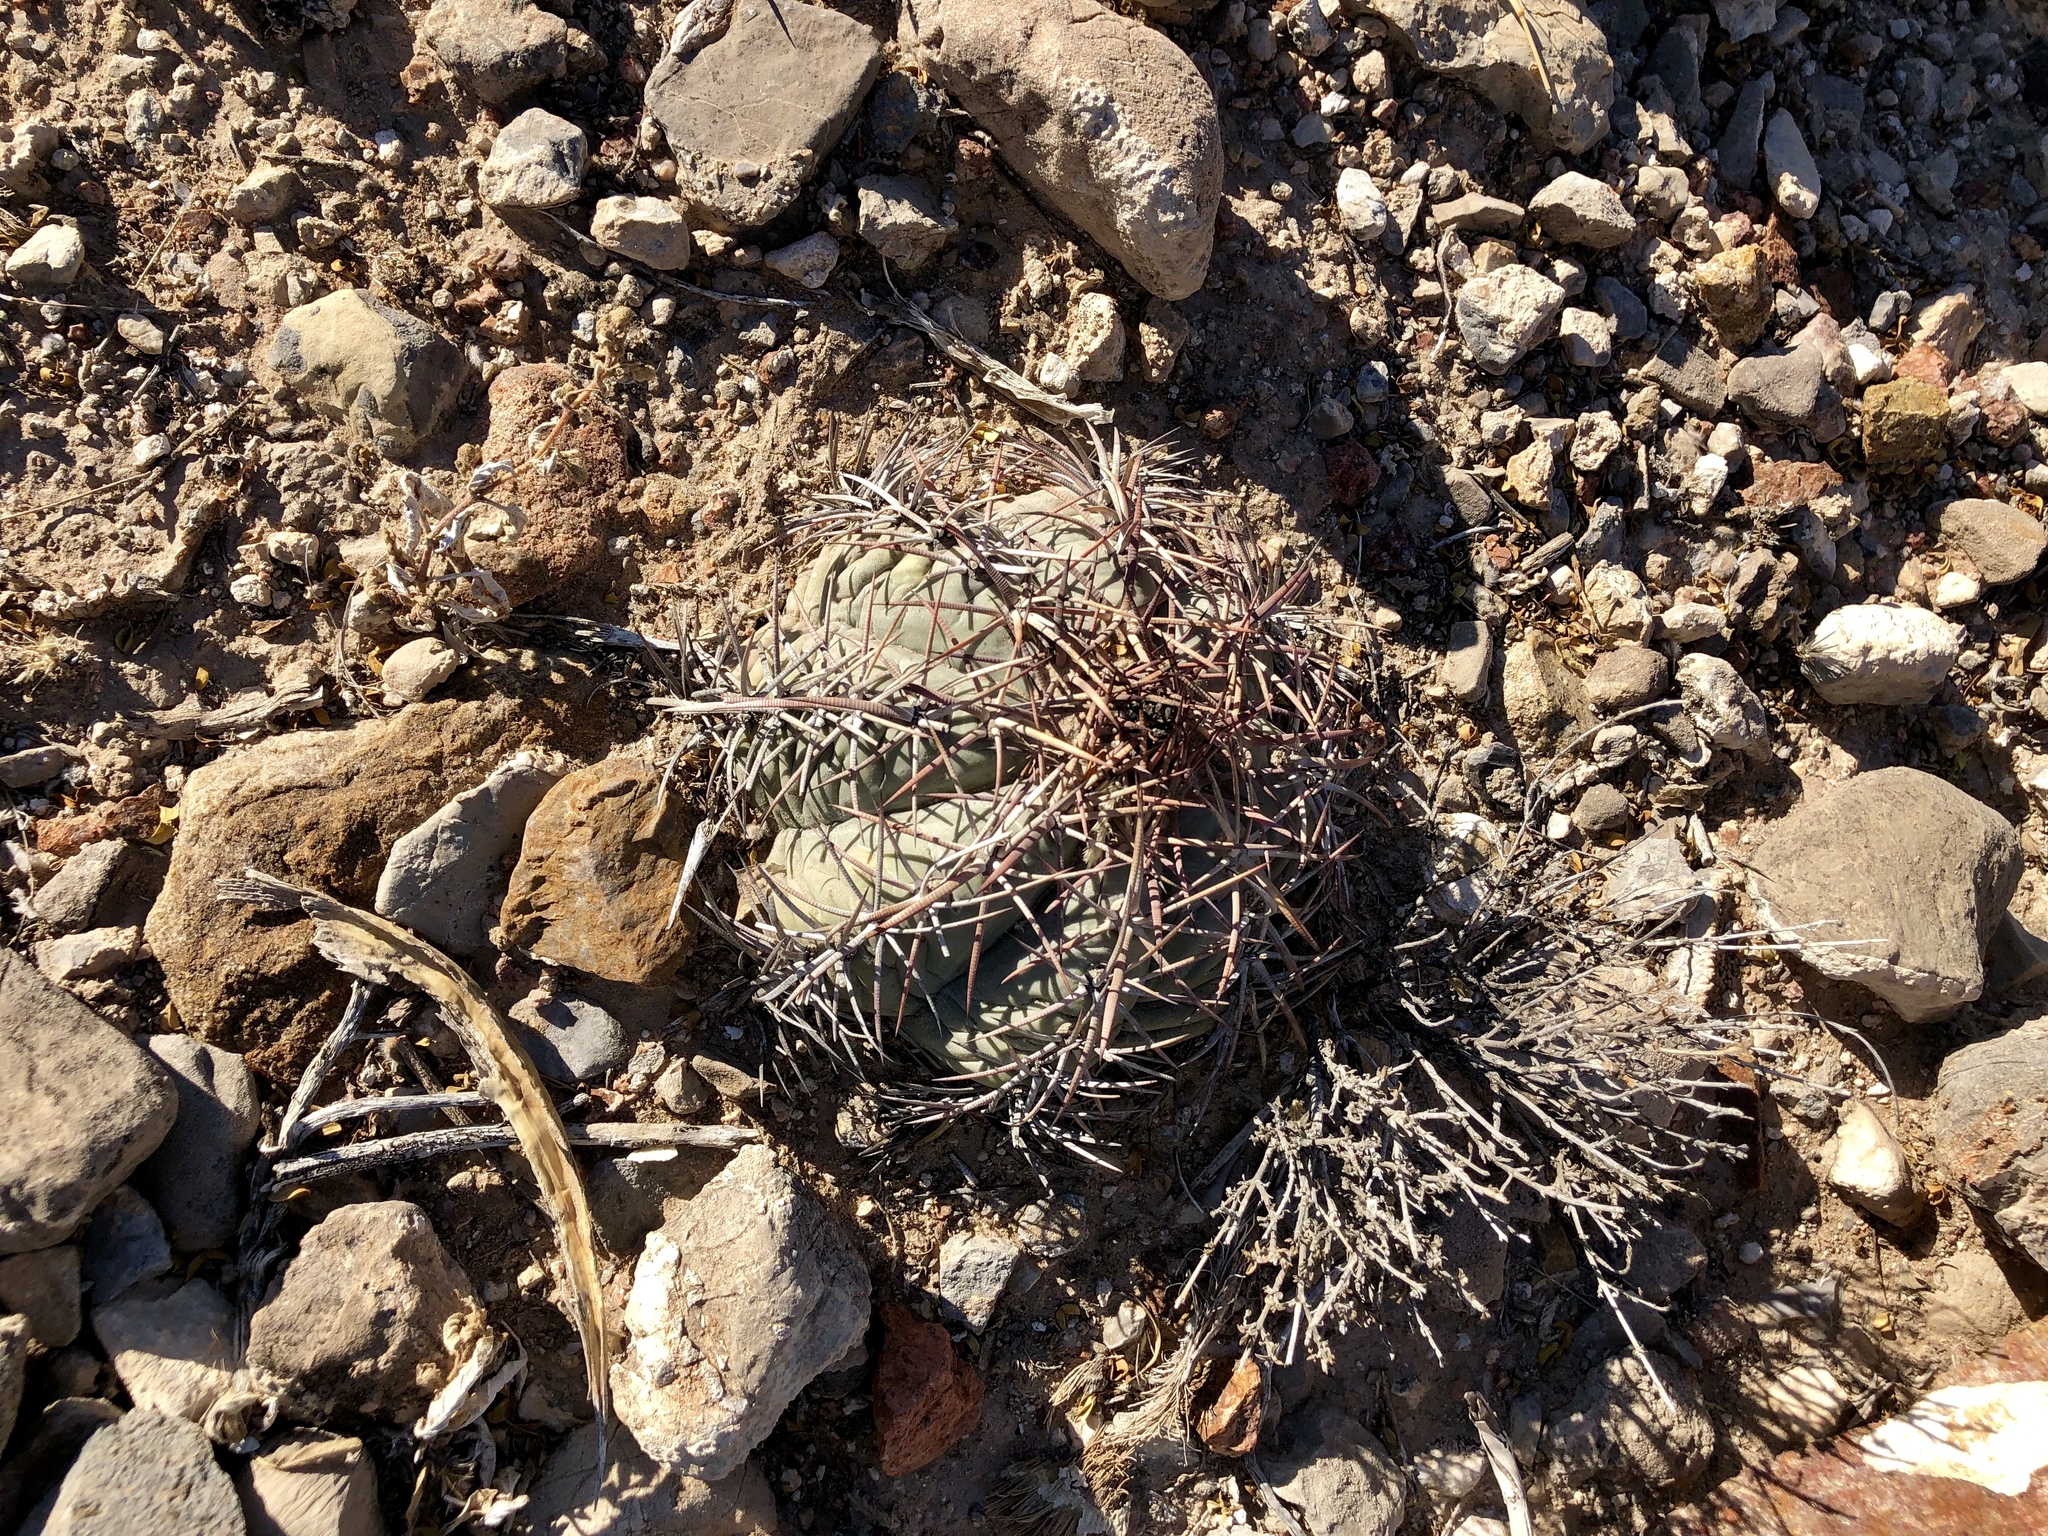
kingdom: Plantae
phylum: Tracheophyta
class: Magnoliopsida
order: Caryophyllales
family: Cactaceae
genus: Echinocactus
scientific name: Echinocactus horizonthalonius
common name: Devilshead
